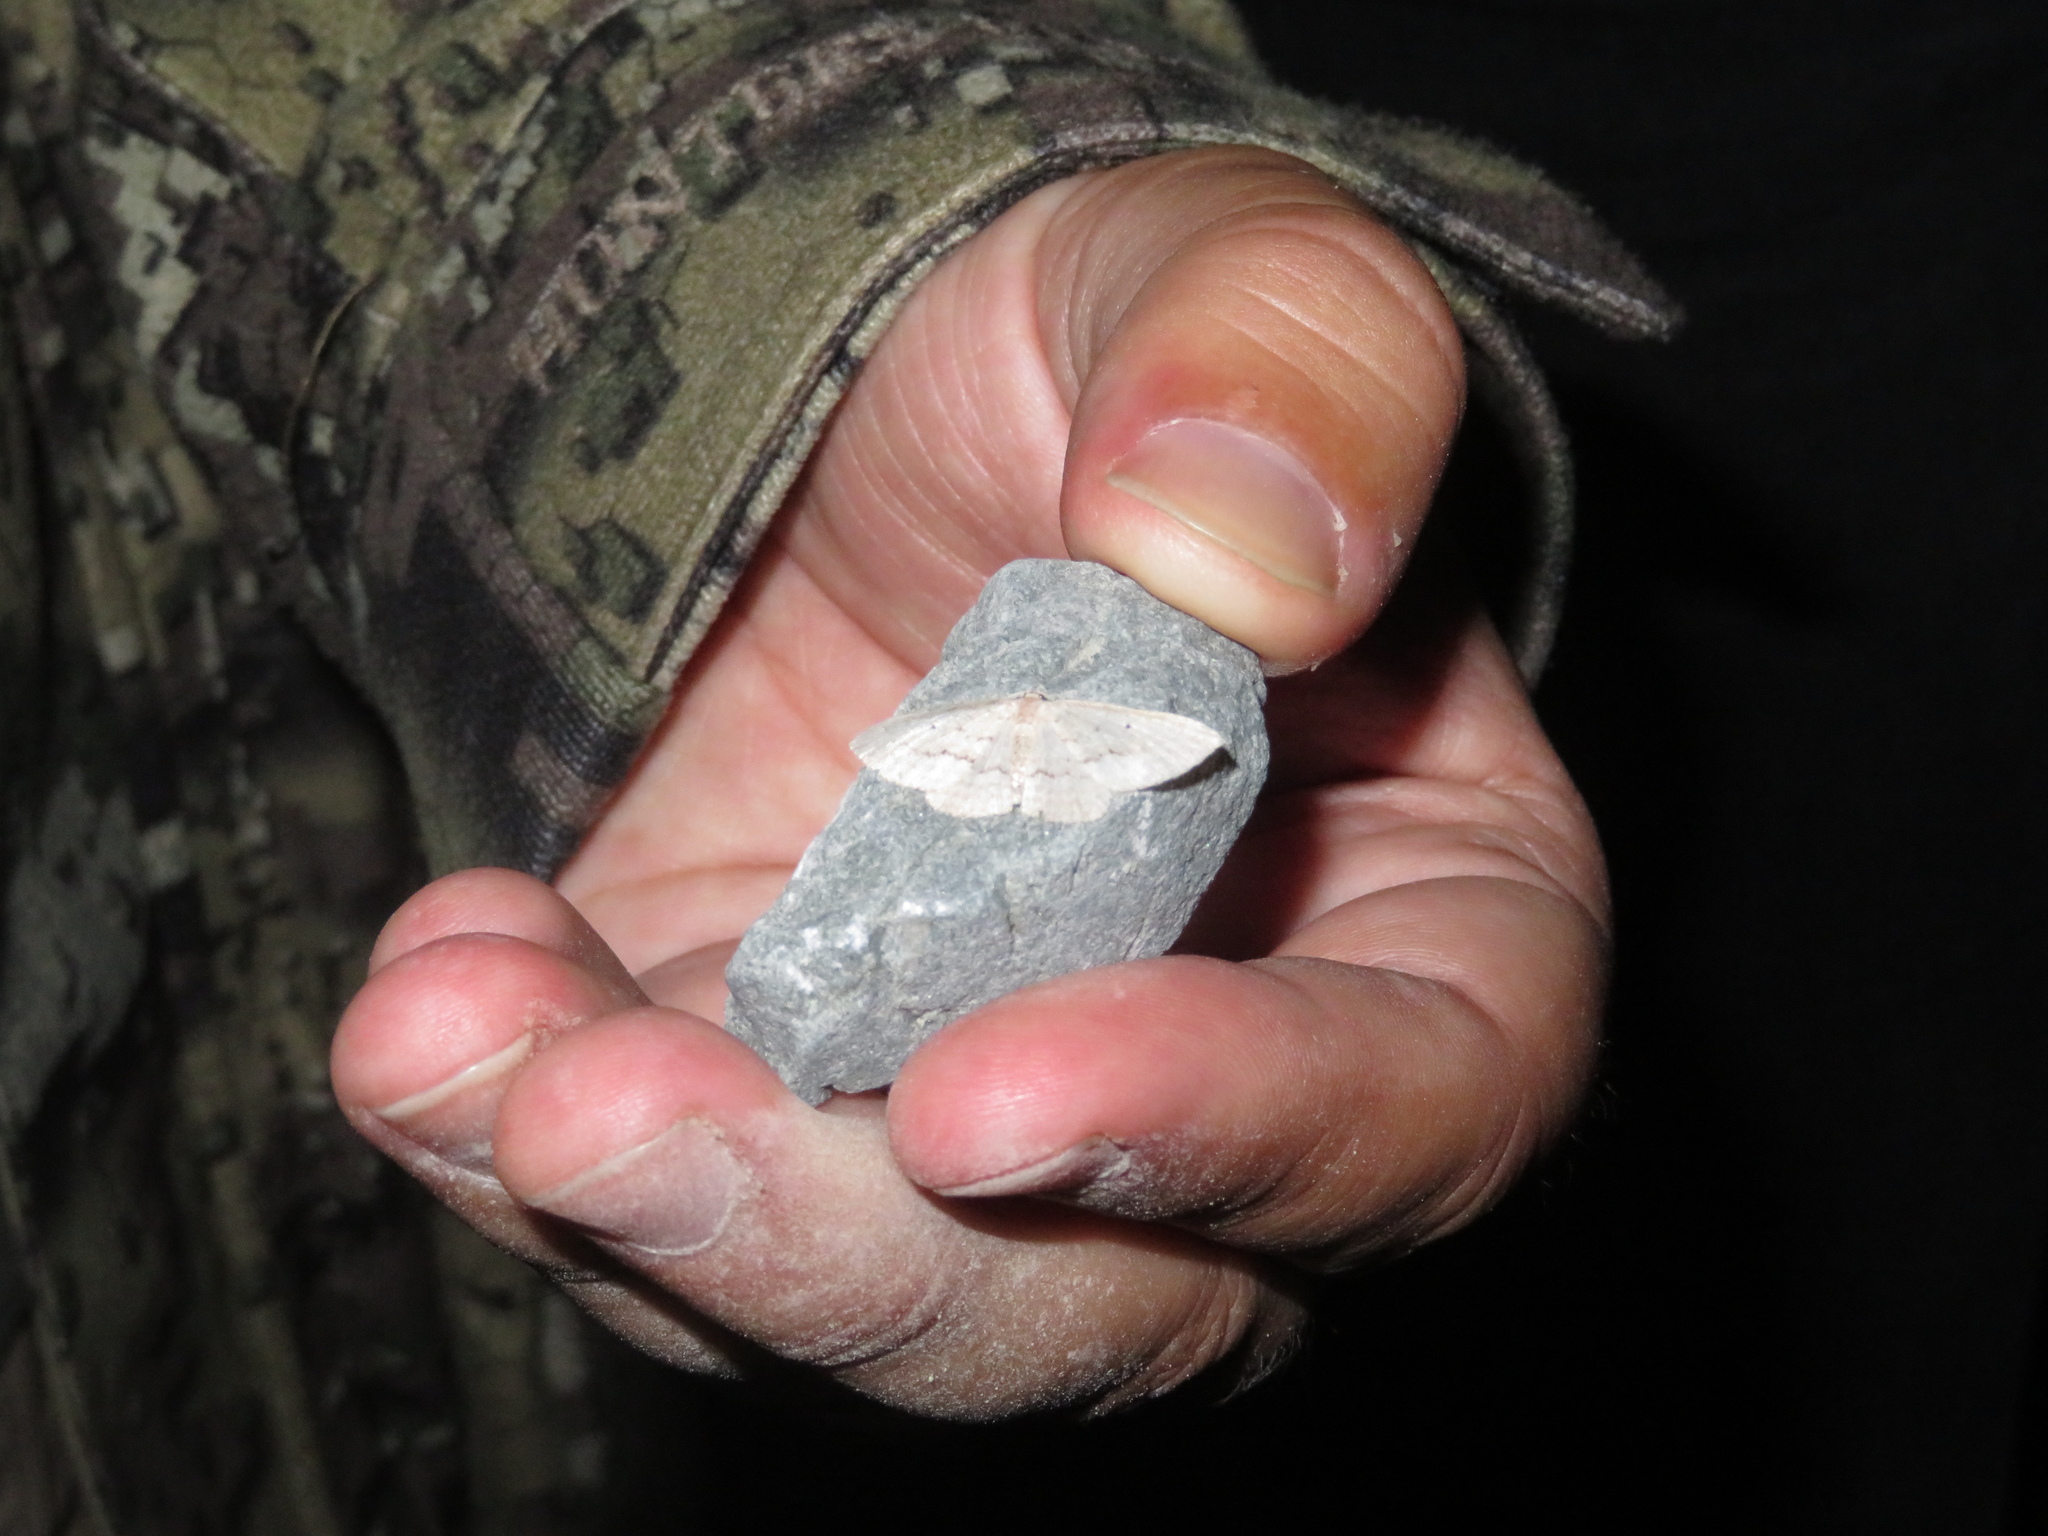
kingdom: Animalia
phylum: Arthropoda
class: Insecta
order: Lepidoptera
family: Geometridae
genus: Poecilasthena
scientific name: Poecilasthena schistaria
